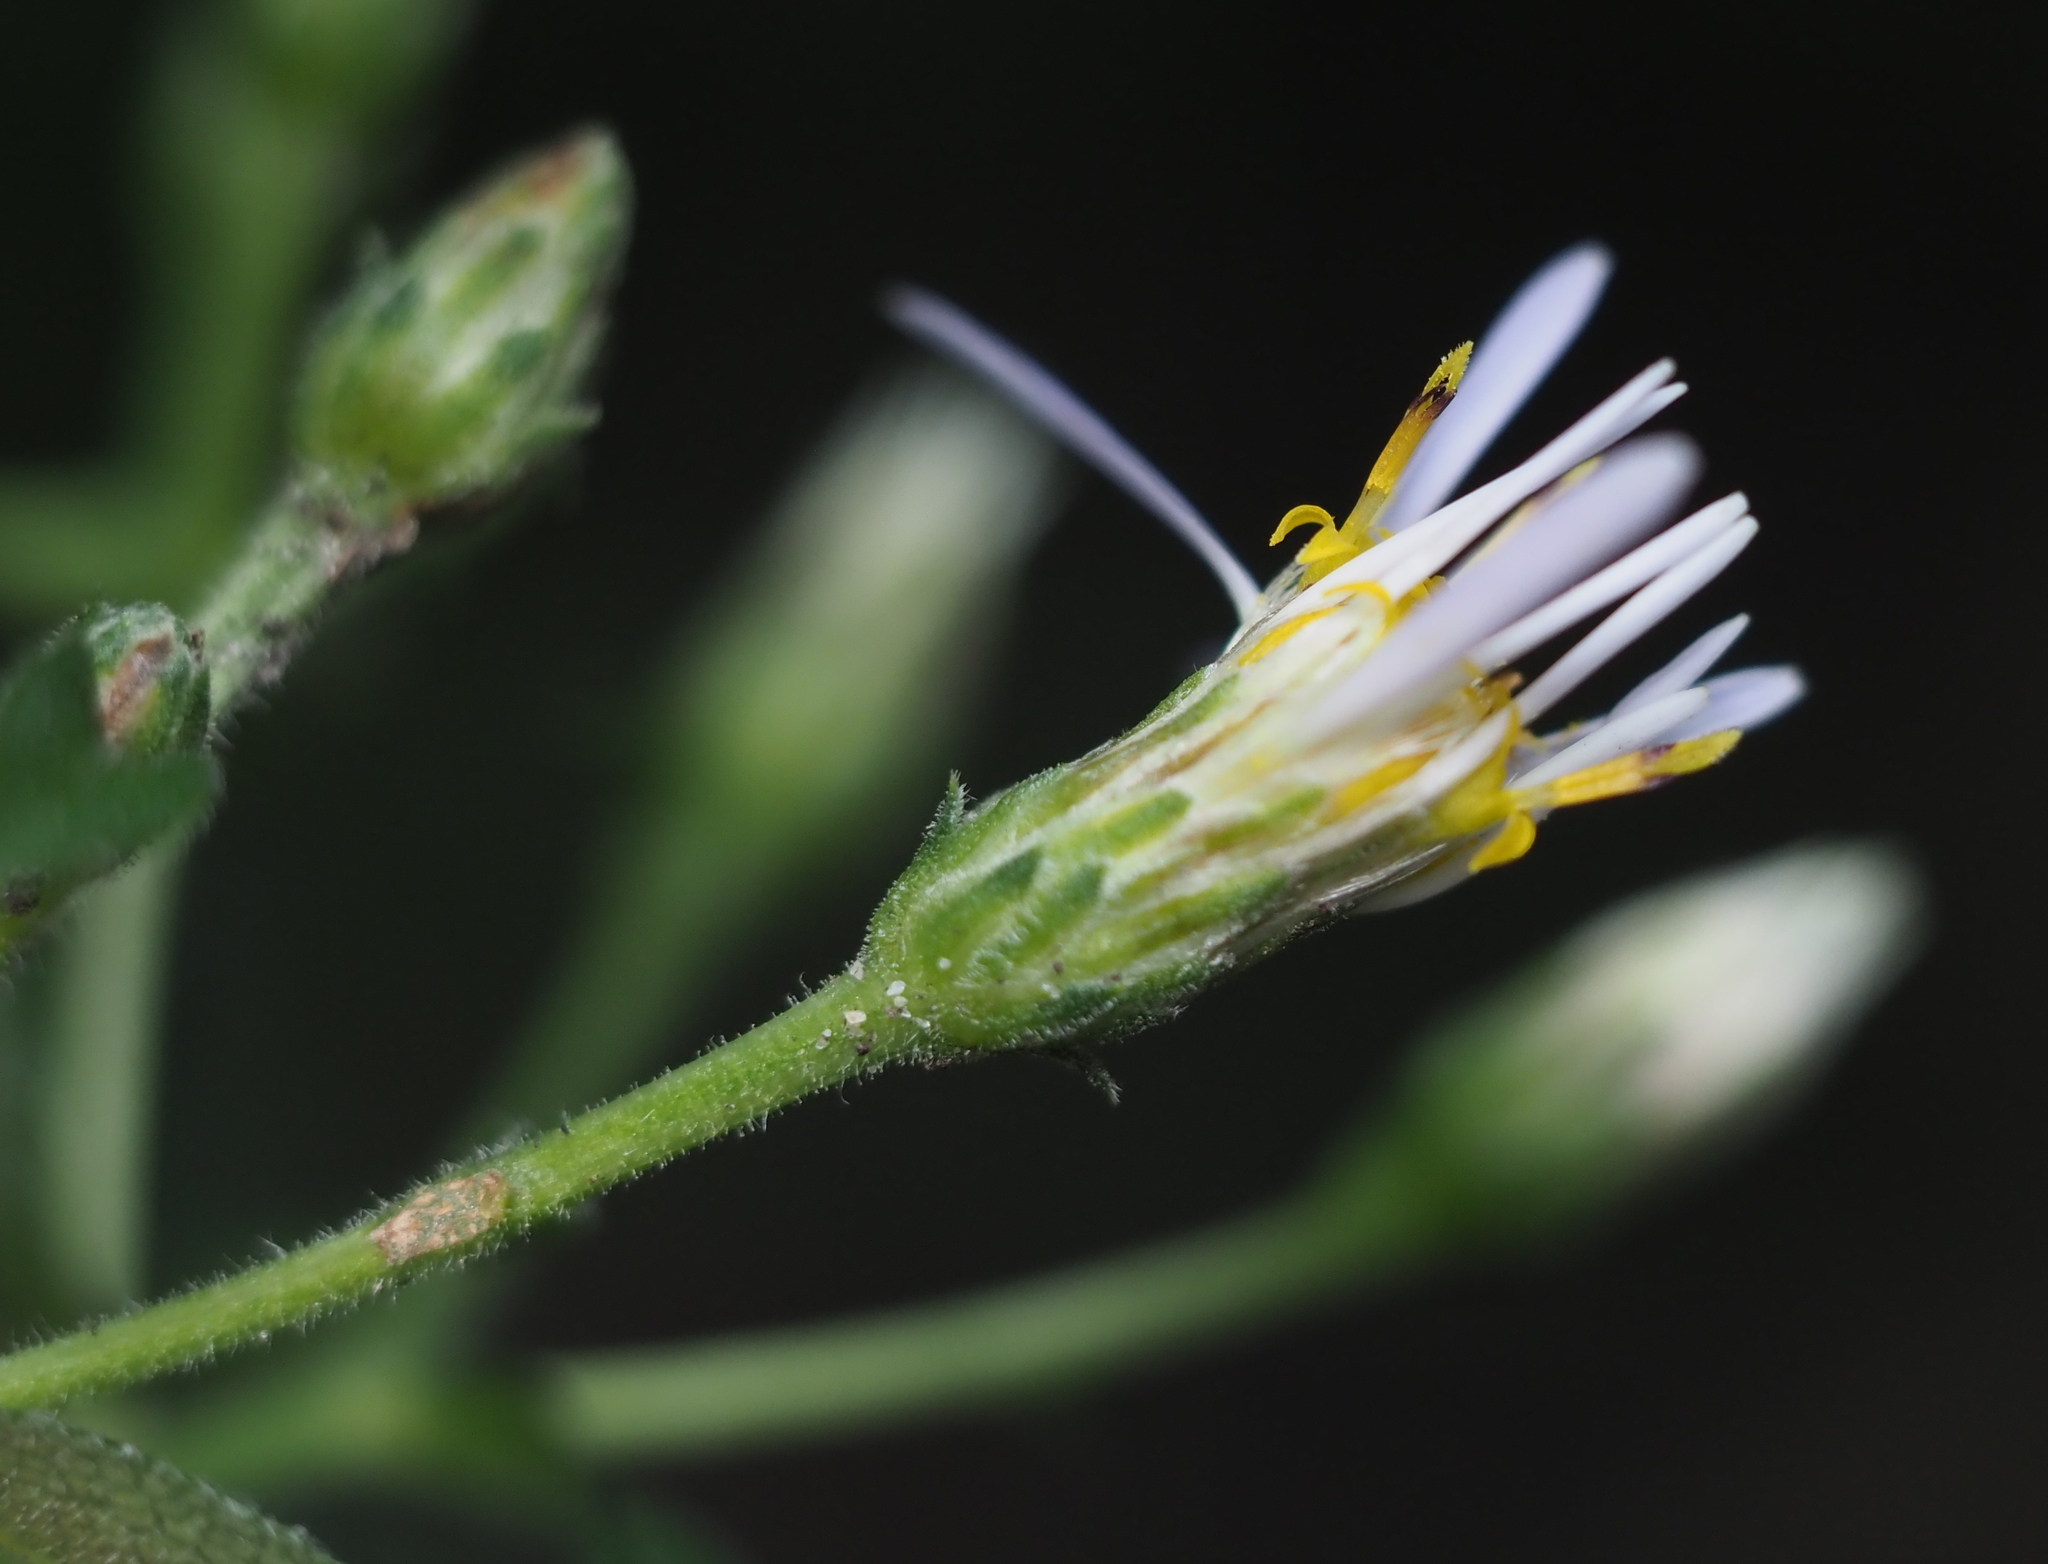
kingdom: Plantae
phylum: Tracheophyta
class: Magnoliopsida
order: Asterales
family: Asteraceae
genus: Eurybia
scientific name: Eurybia macrophylla
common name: Big-leaved aster
